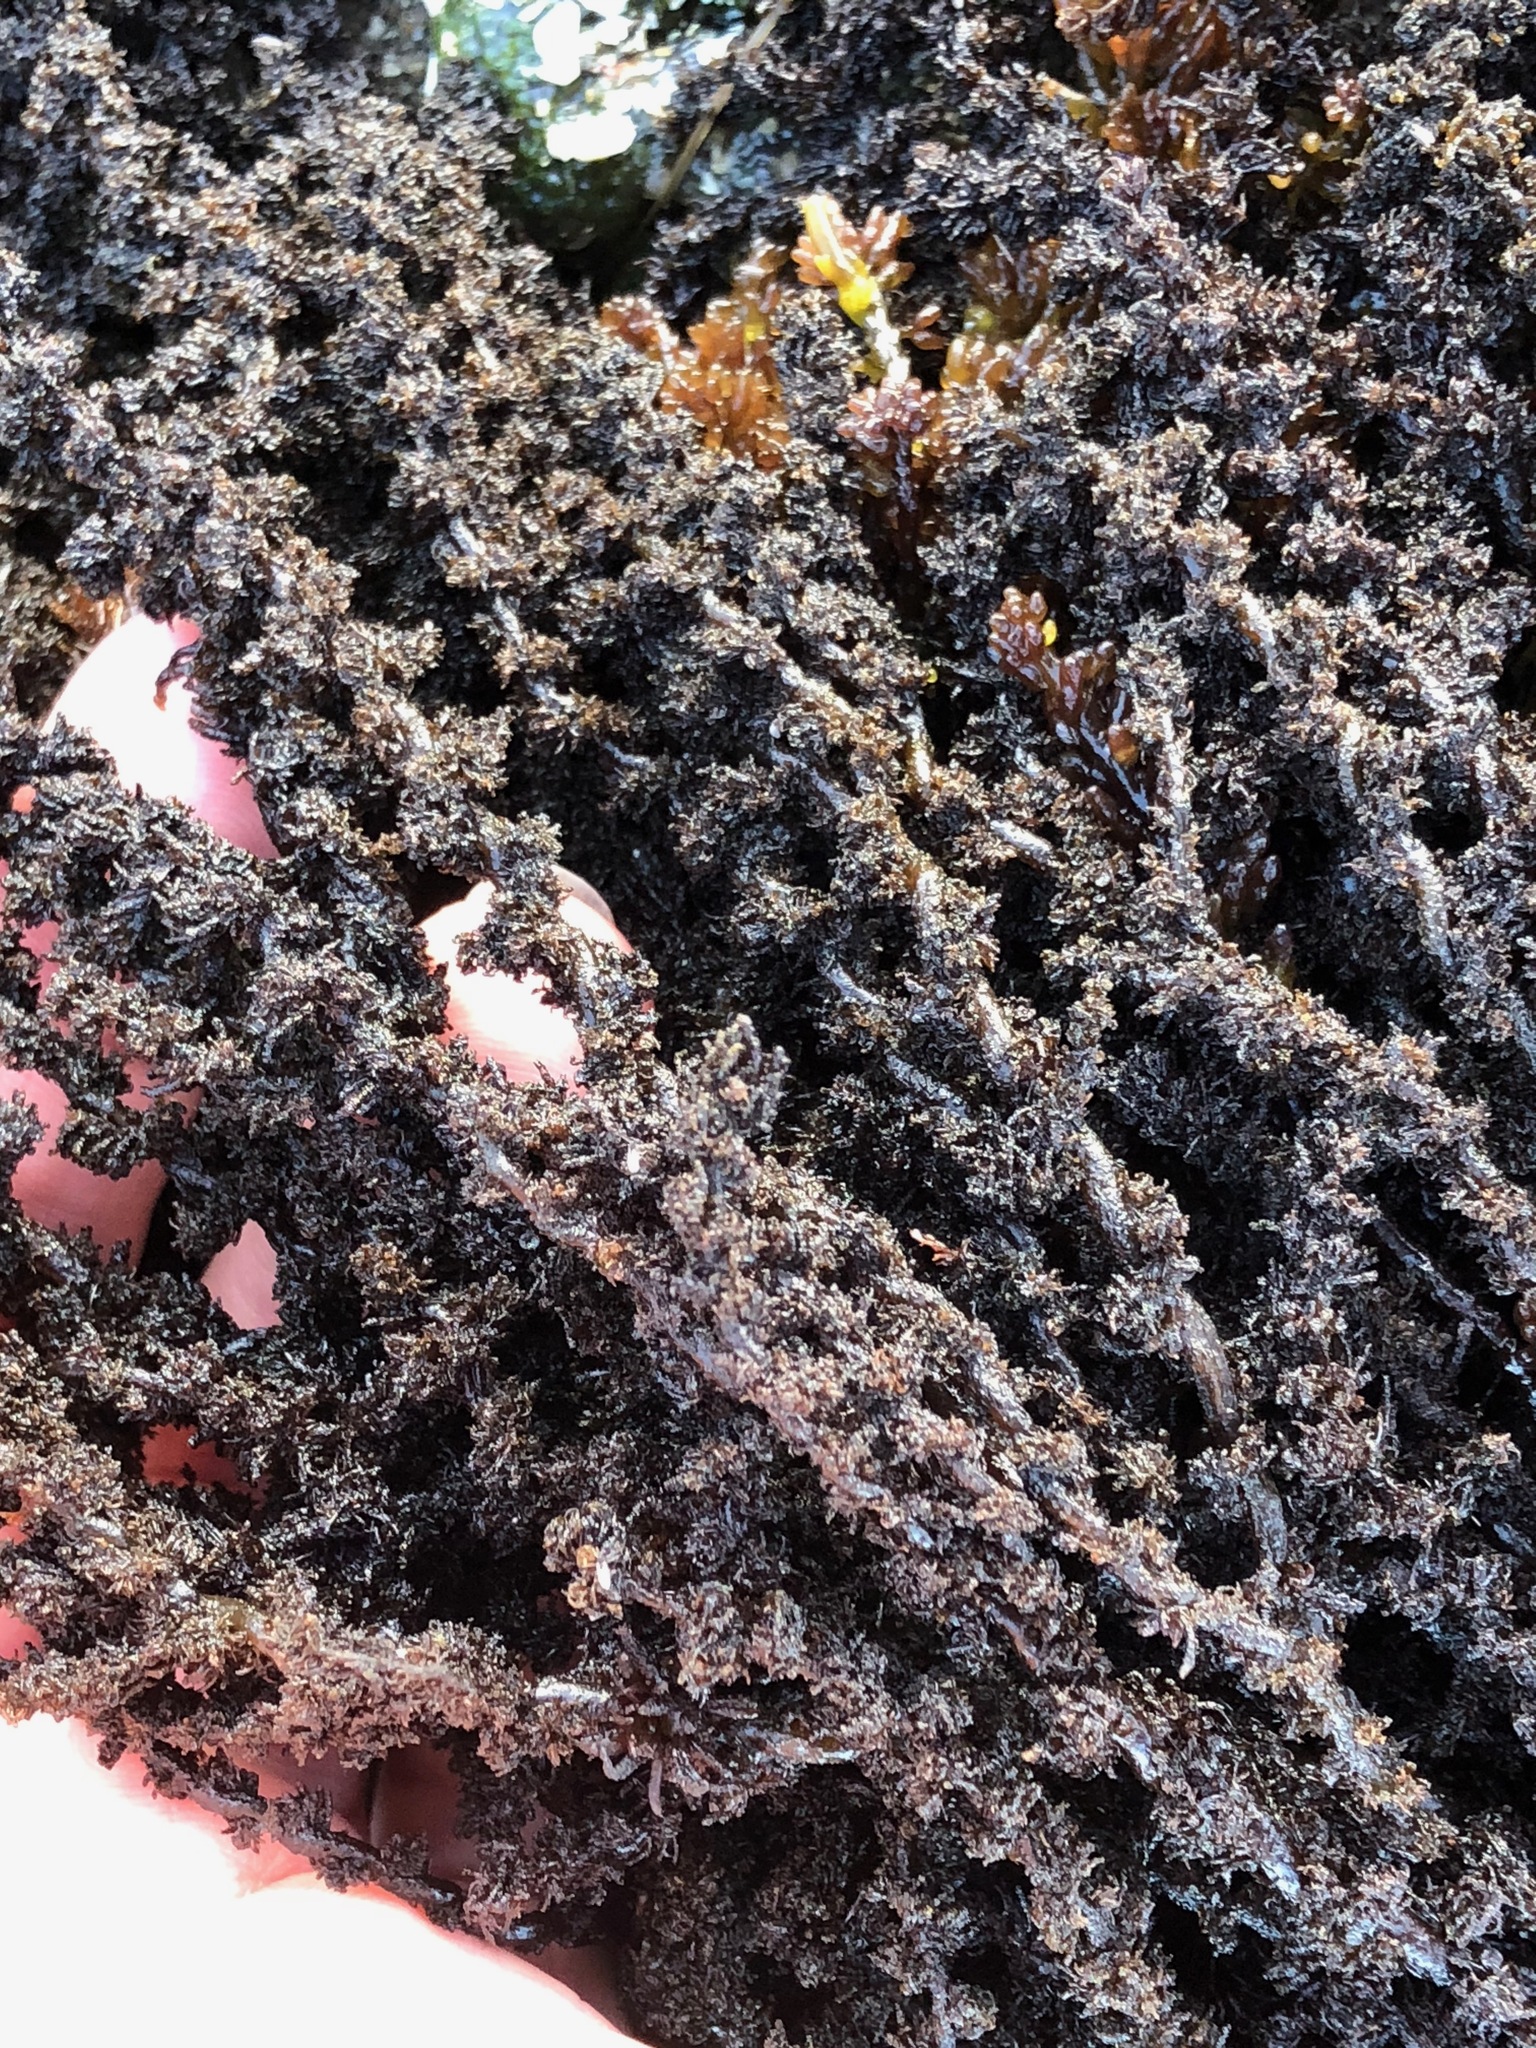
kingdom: Plantae
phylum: Rhodophyta
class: Florideophyceae
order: Ceramiales
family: Rhodomelaceae
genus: Neorhodomela
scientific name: Neorhodomela larix
